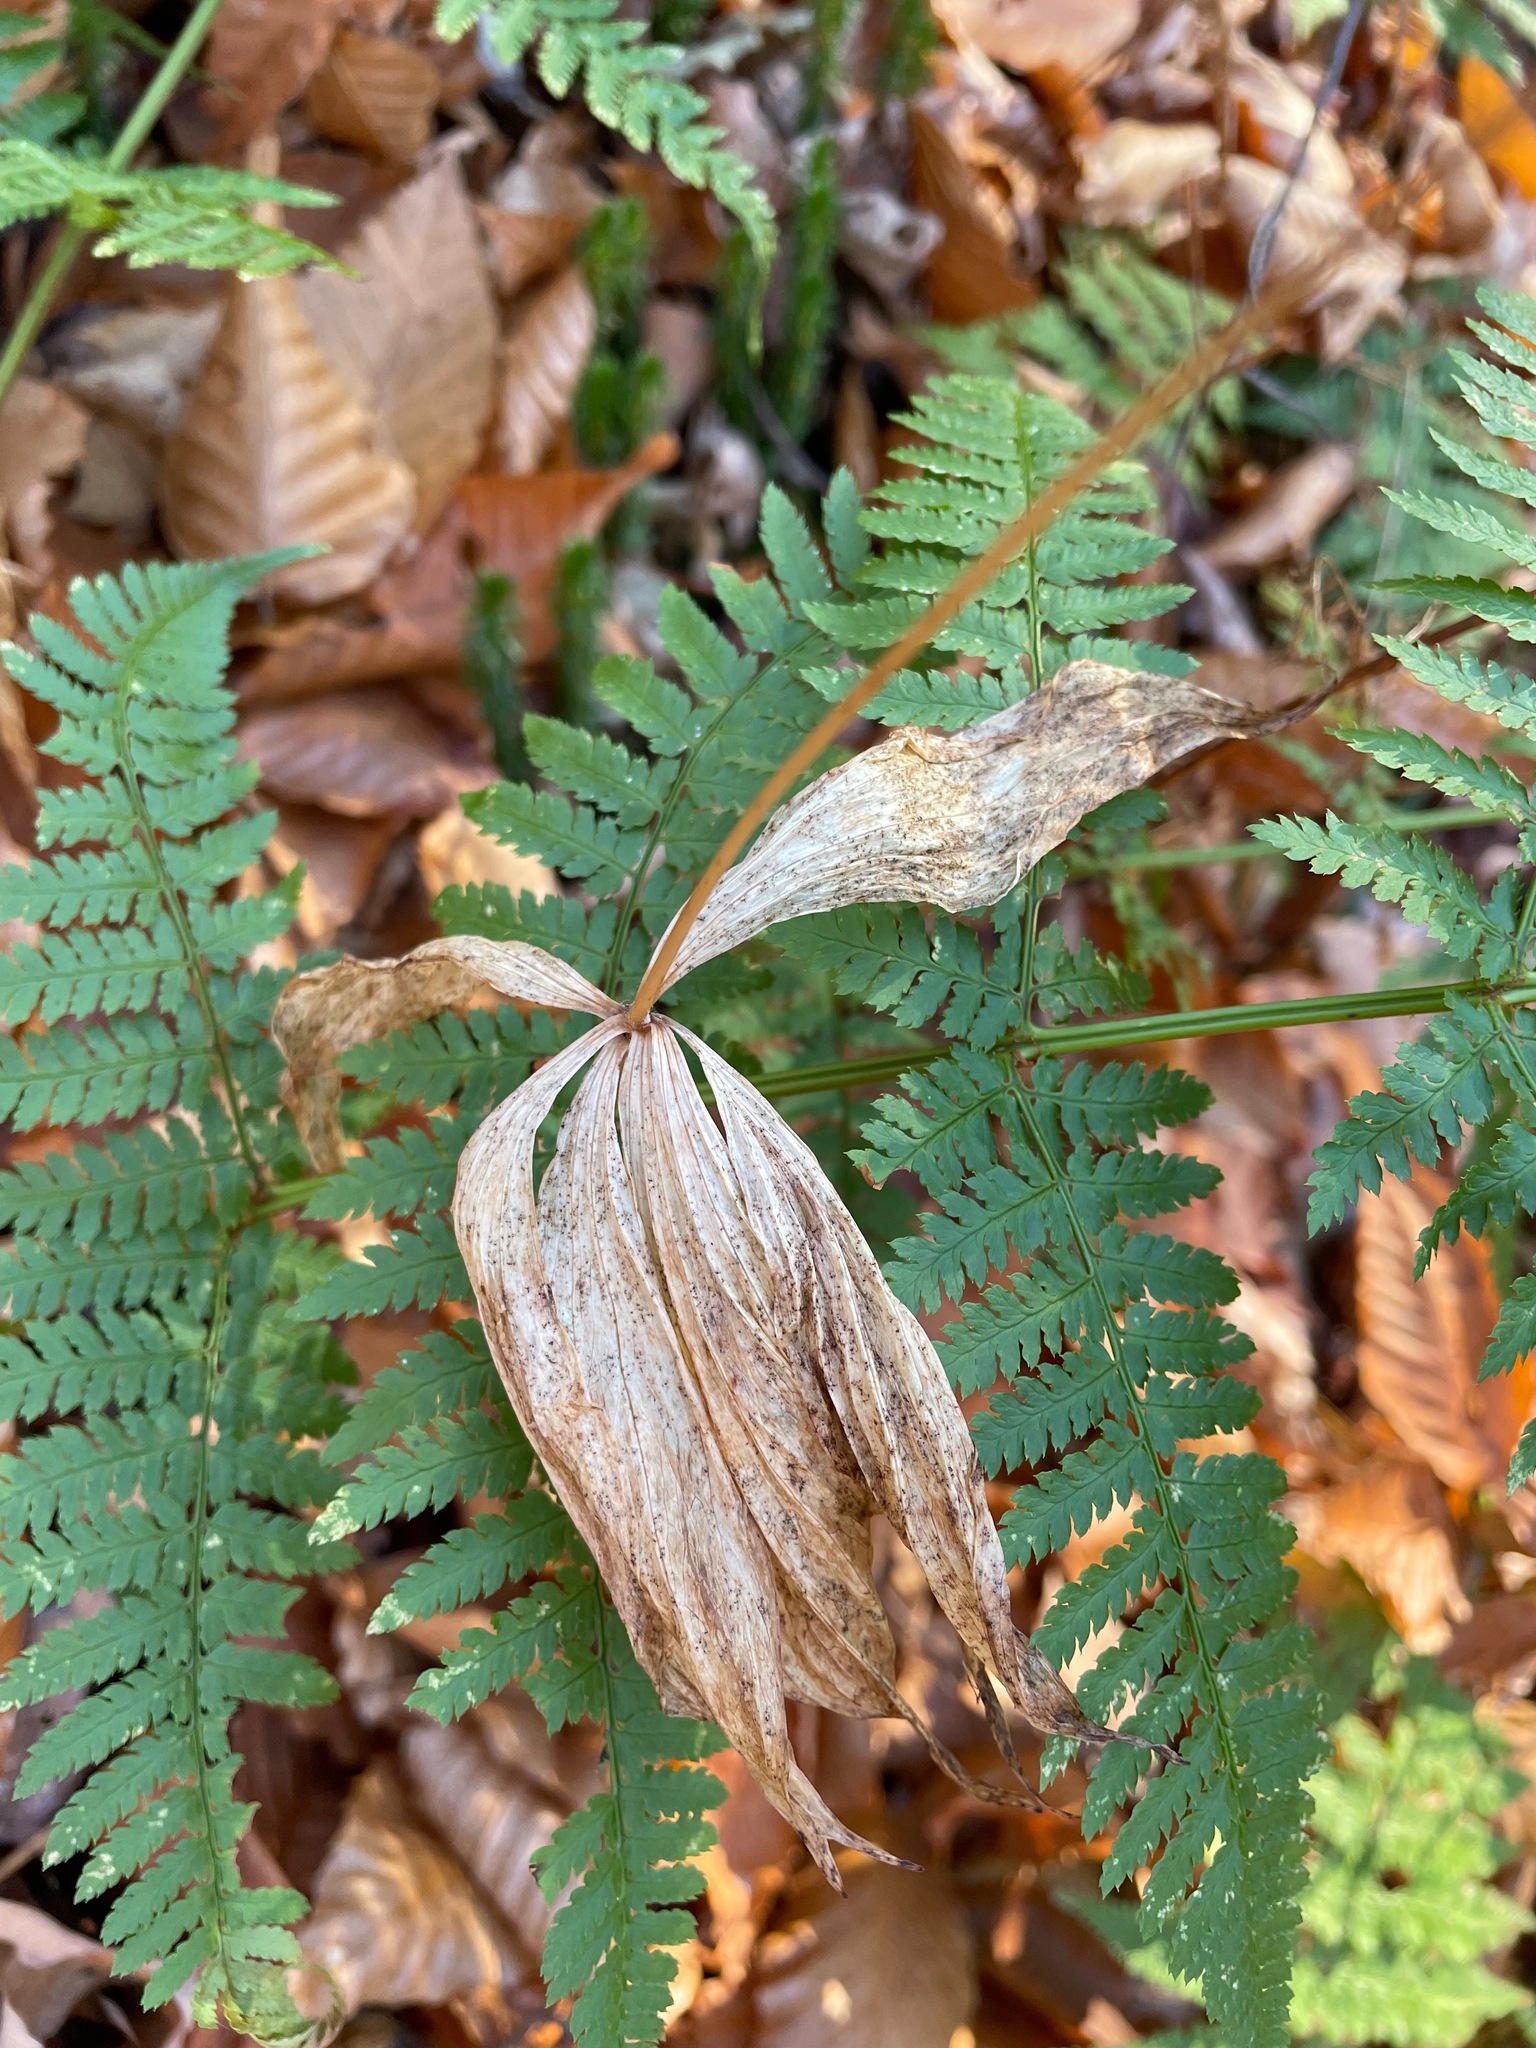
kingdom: Plantae
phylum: Tracheophyta
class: Liliopsida
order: Liliales
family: Liliaceae
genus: Medeola
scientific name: Medeola virginiana
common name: Indian cucumber-root
